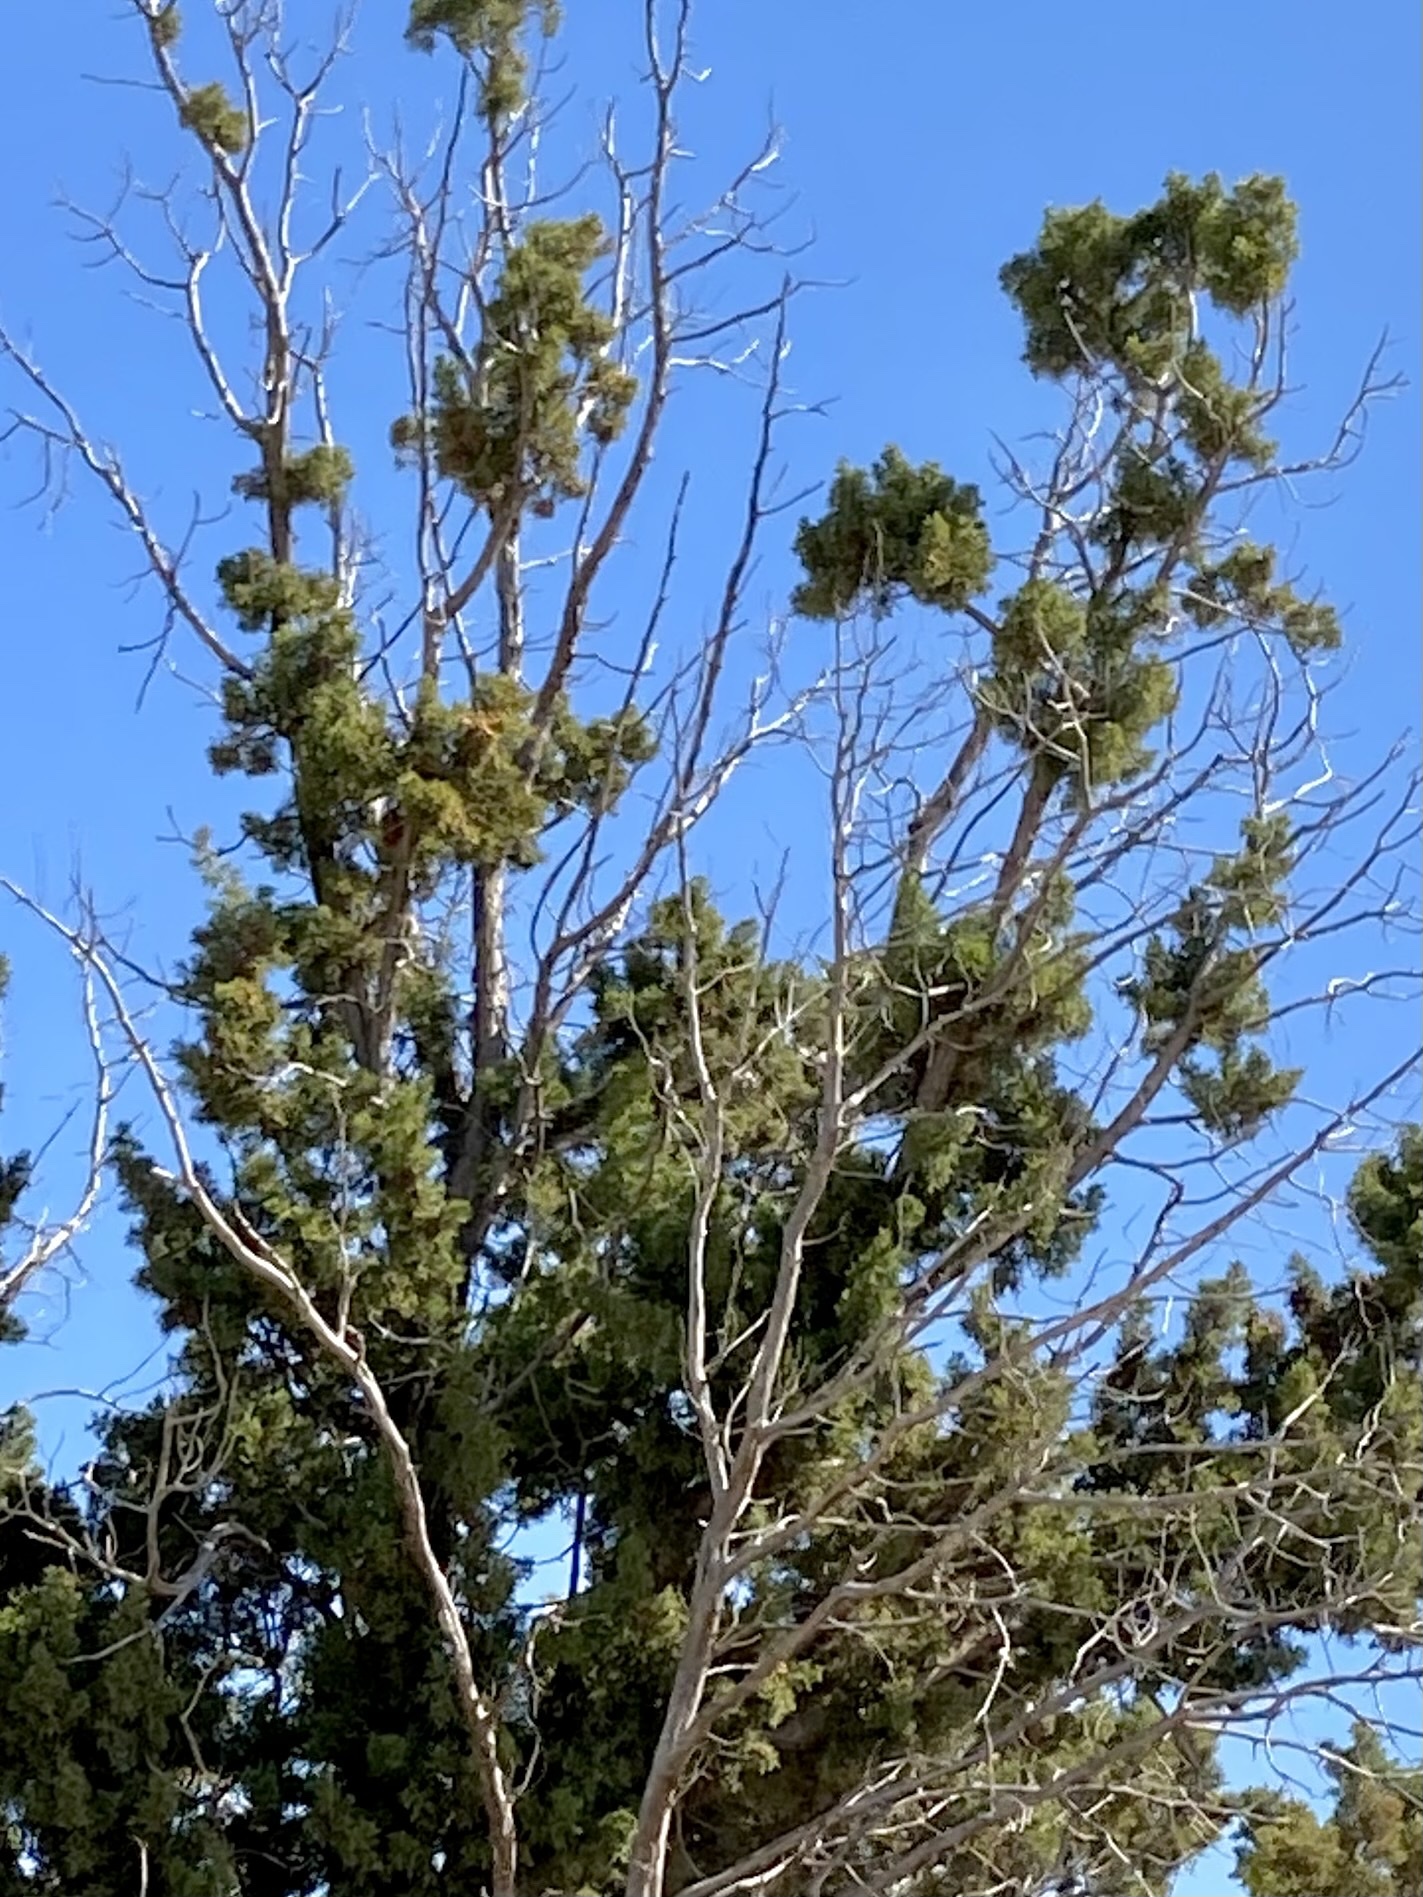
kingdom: Plantae
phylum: Tracheophyta
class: Pinopsida
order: Pinales
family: Cupressaceae
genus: Juniperus
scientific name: Juniperus ashei
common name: Mexican juniper
